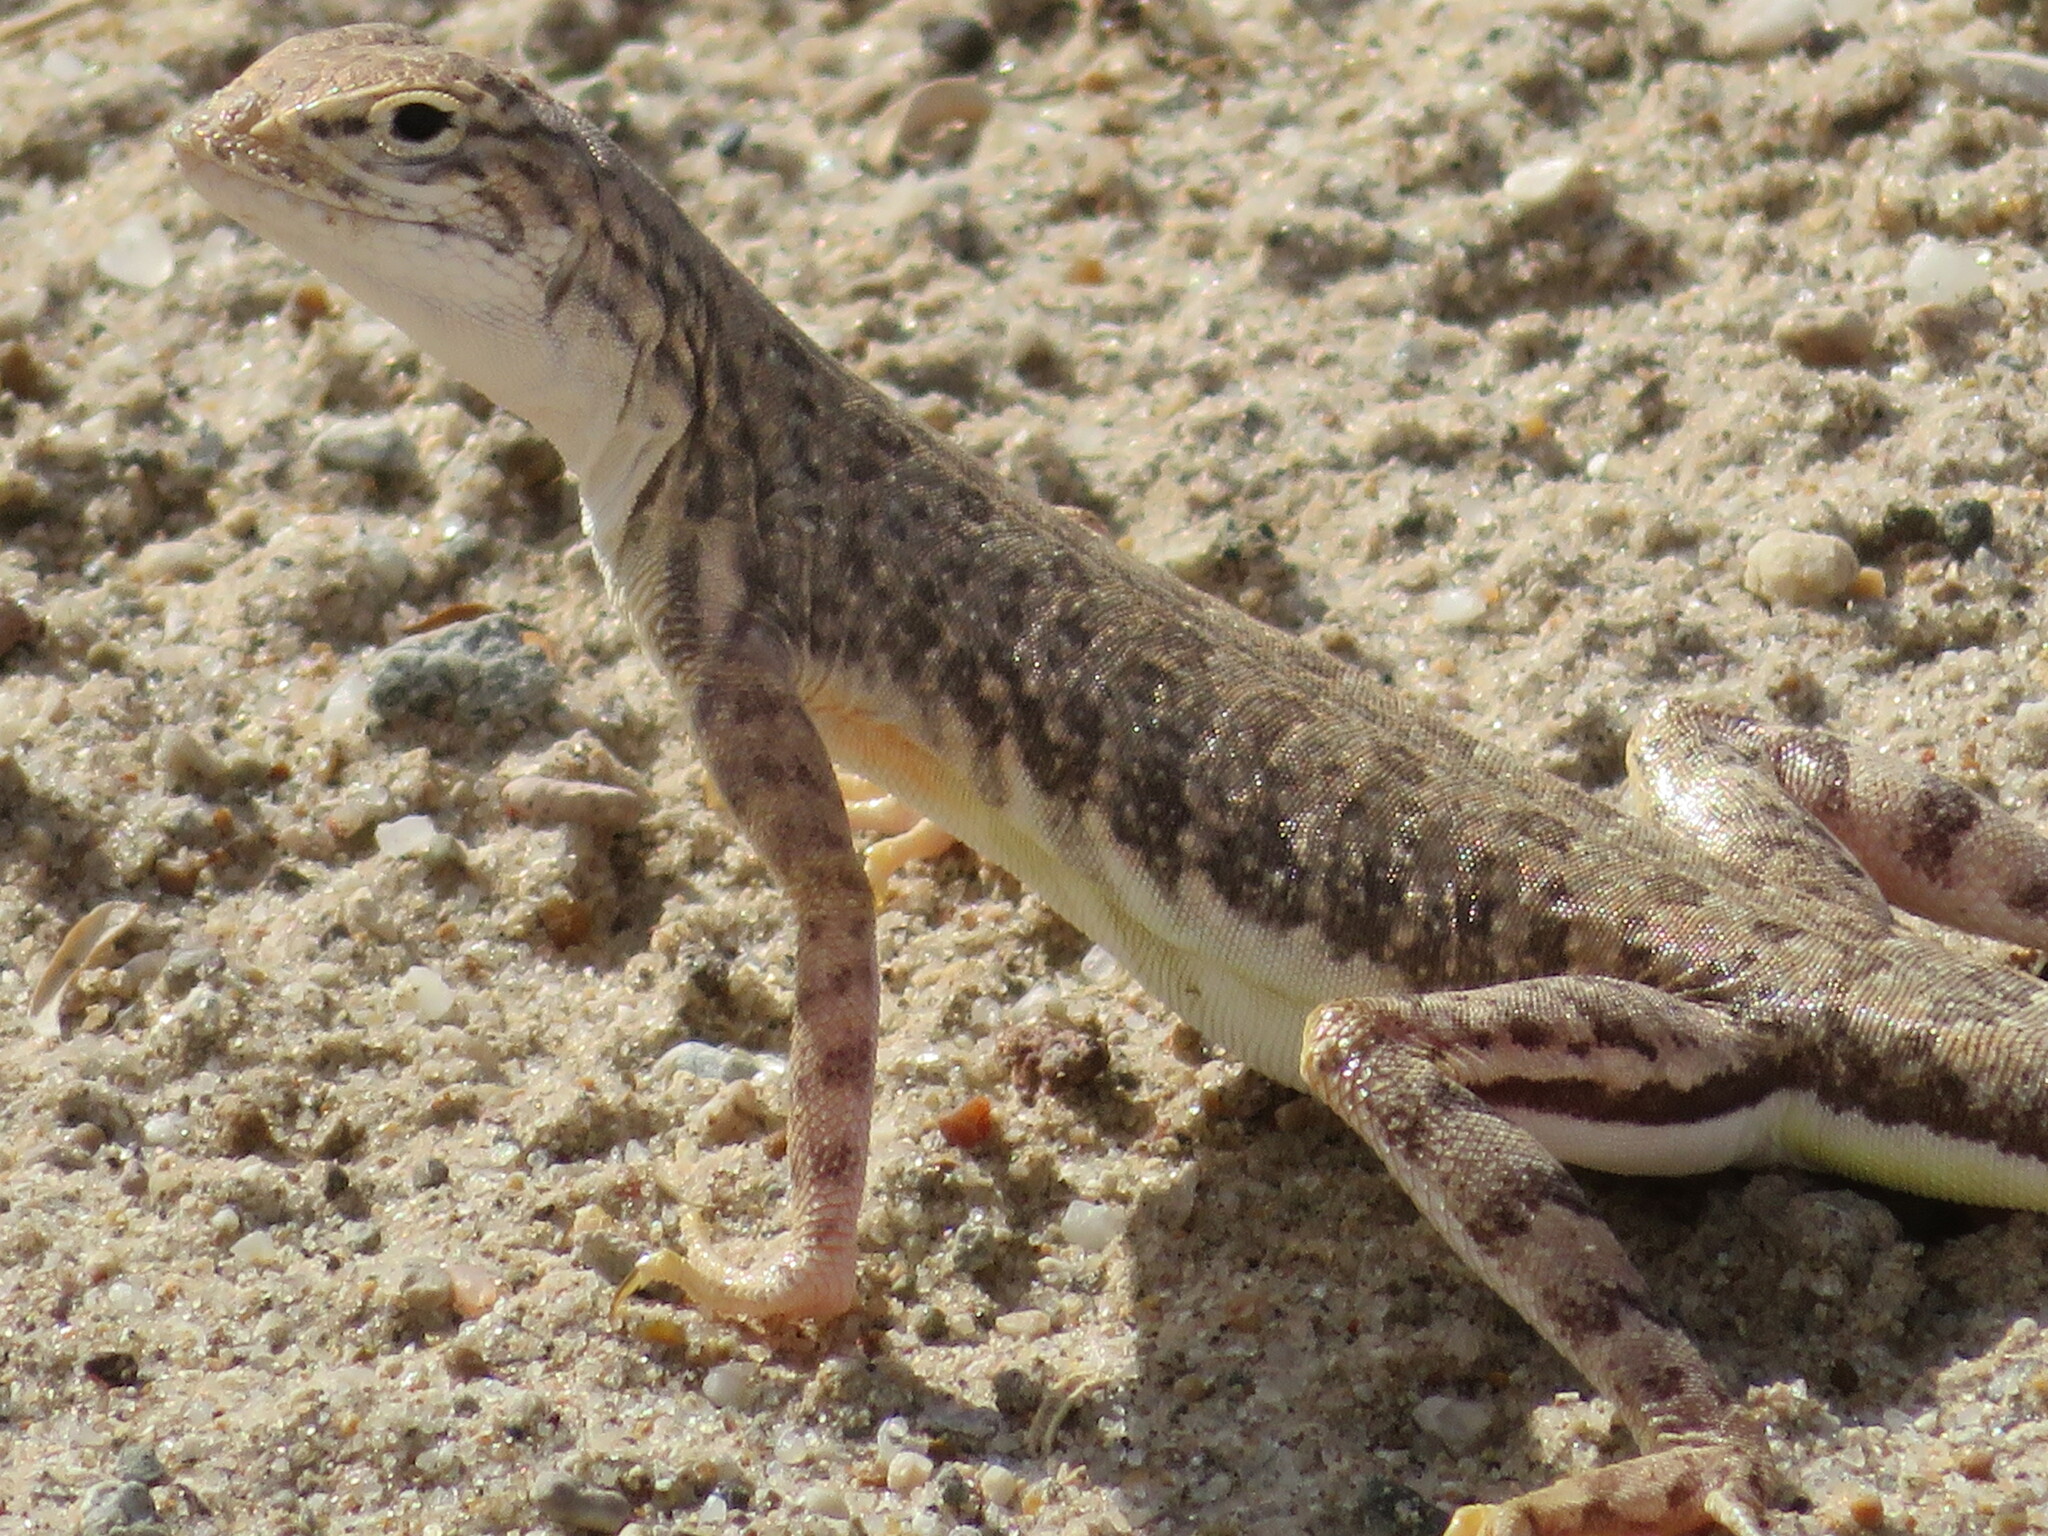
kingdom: Animalia
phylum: Chordata
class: Squamata
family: Phrynosomatidae
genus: Callisaurus
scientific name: Callisaurus draconoides
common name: Zebra-tailed lizard
